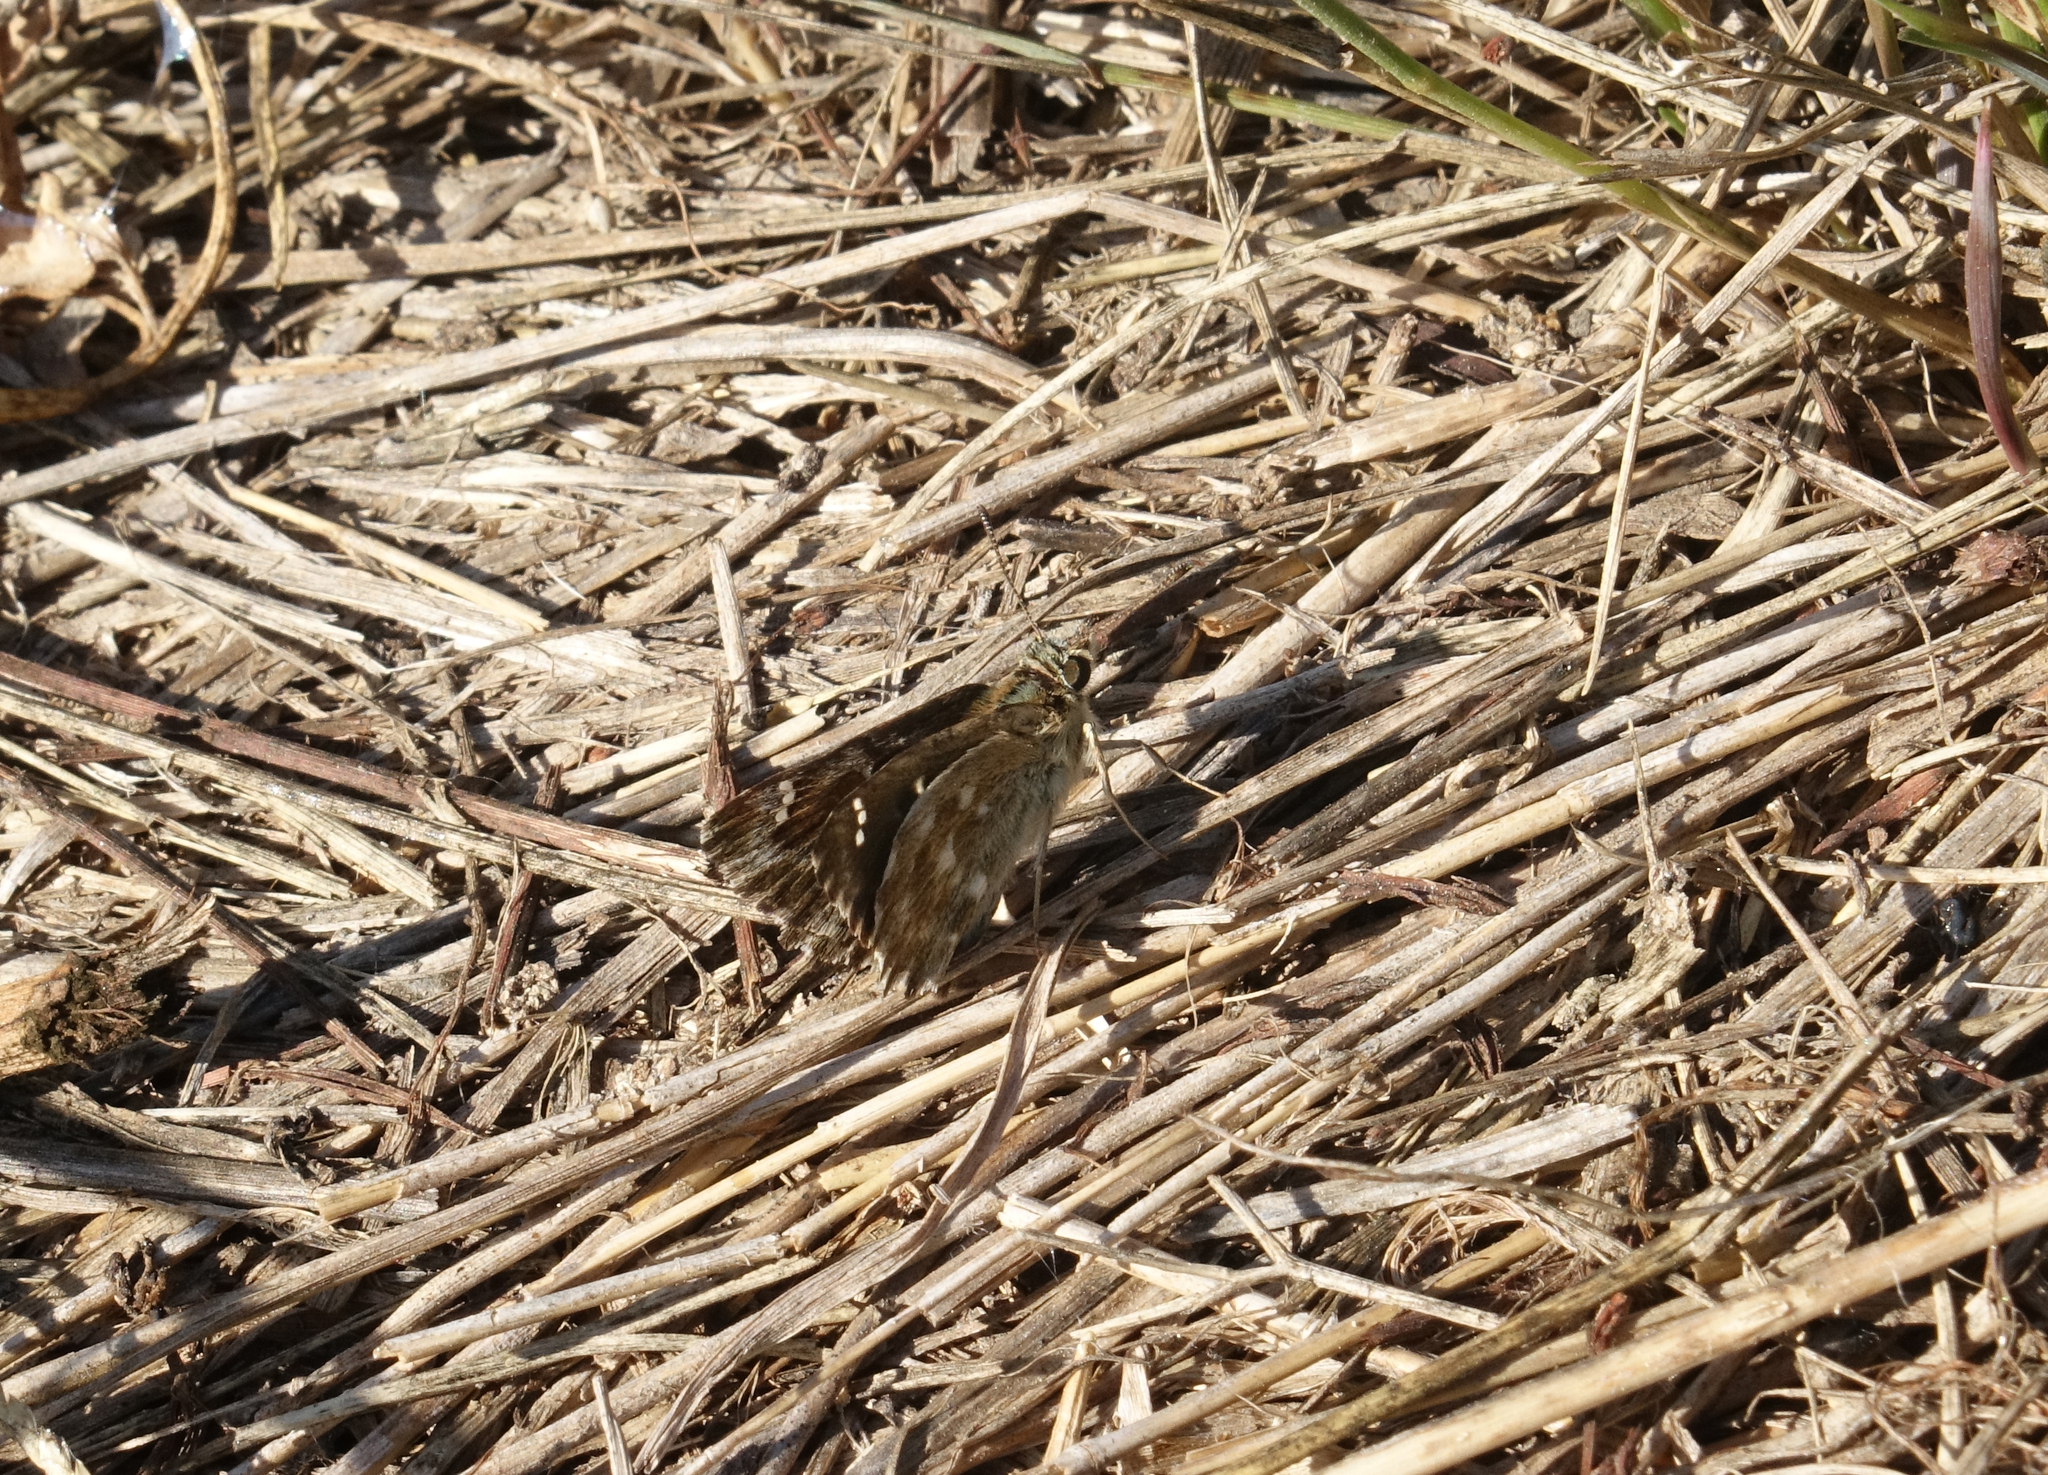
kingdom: Animalia
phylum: Arthropoda
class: Insecta
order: Lepidoptera
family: Hesperiidae
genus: Carcharodus
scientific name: Carcharodus alceae
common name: Mallow skipper
